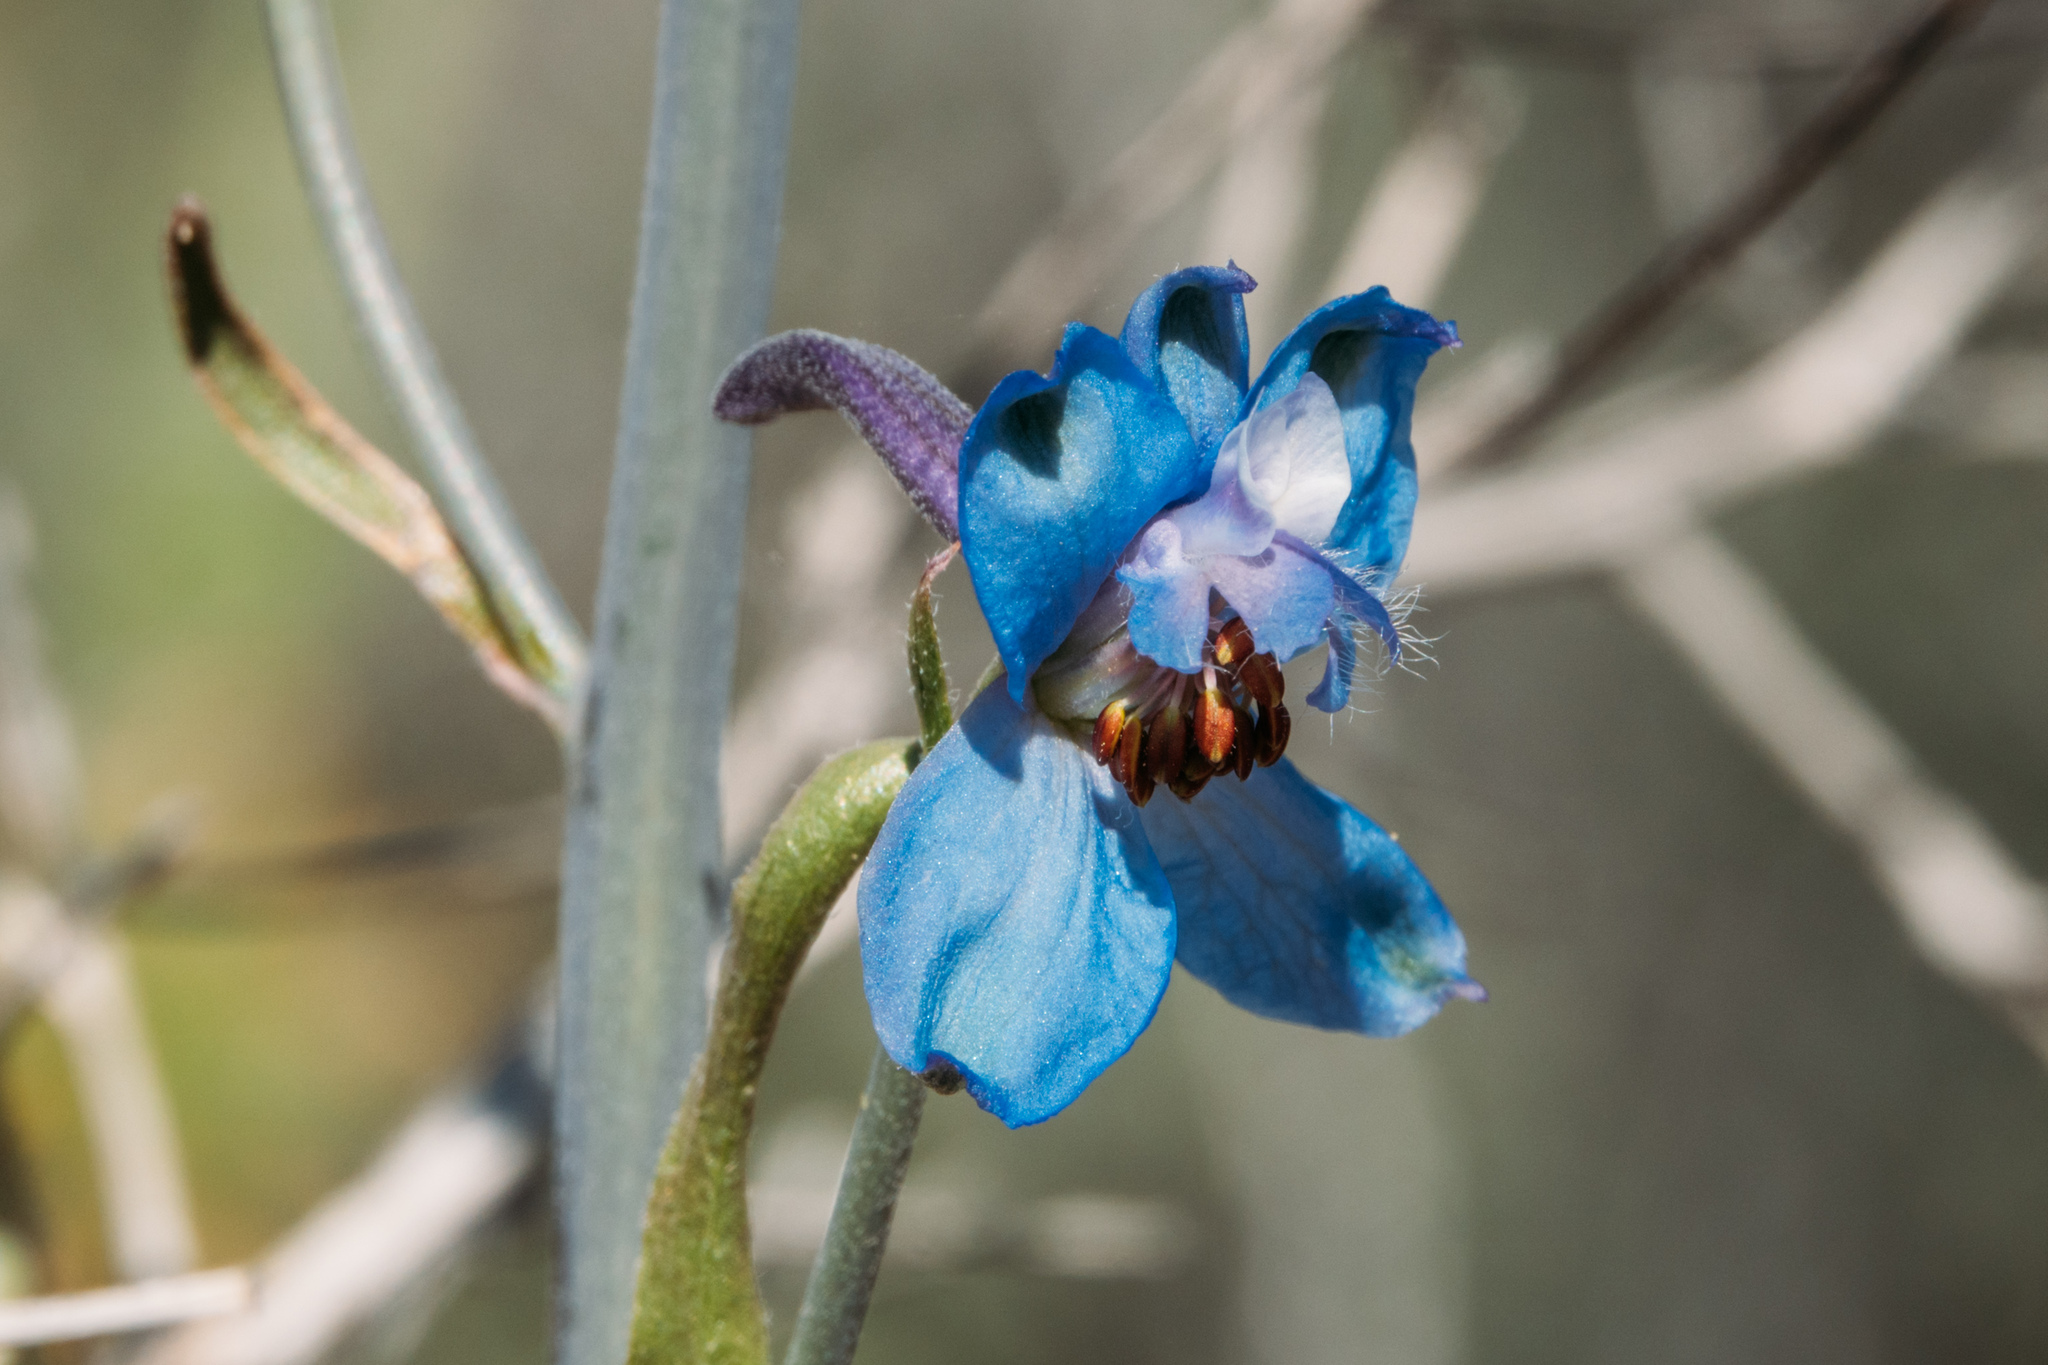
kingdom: Plantae
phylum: Tracheophyta
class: Magnoliopsida
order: Ranunculales
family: Ranunculaceae
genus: Delphinium
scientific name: Delphinium parishii
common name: Apache larkspur
